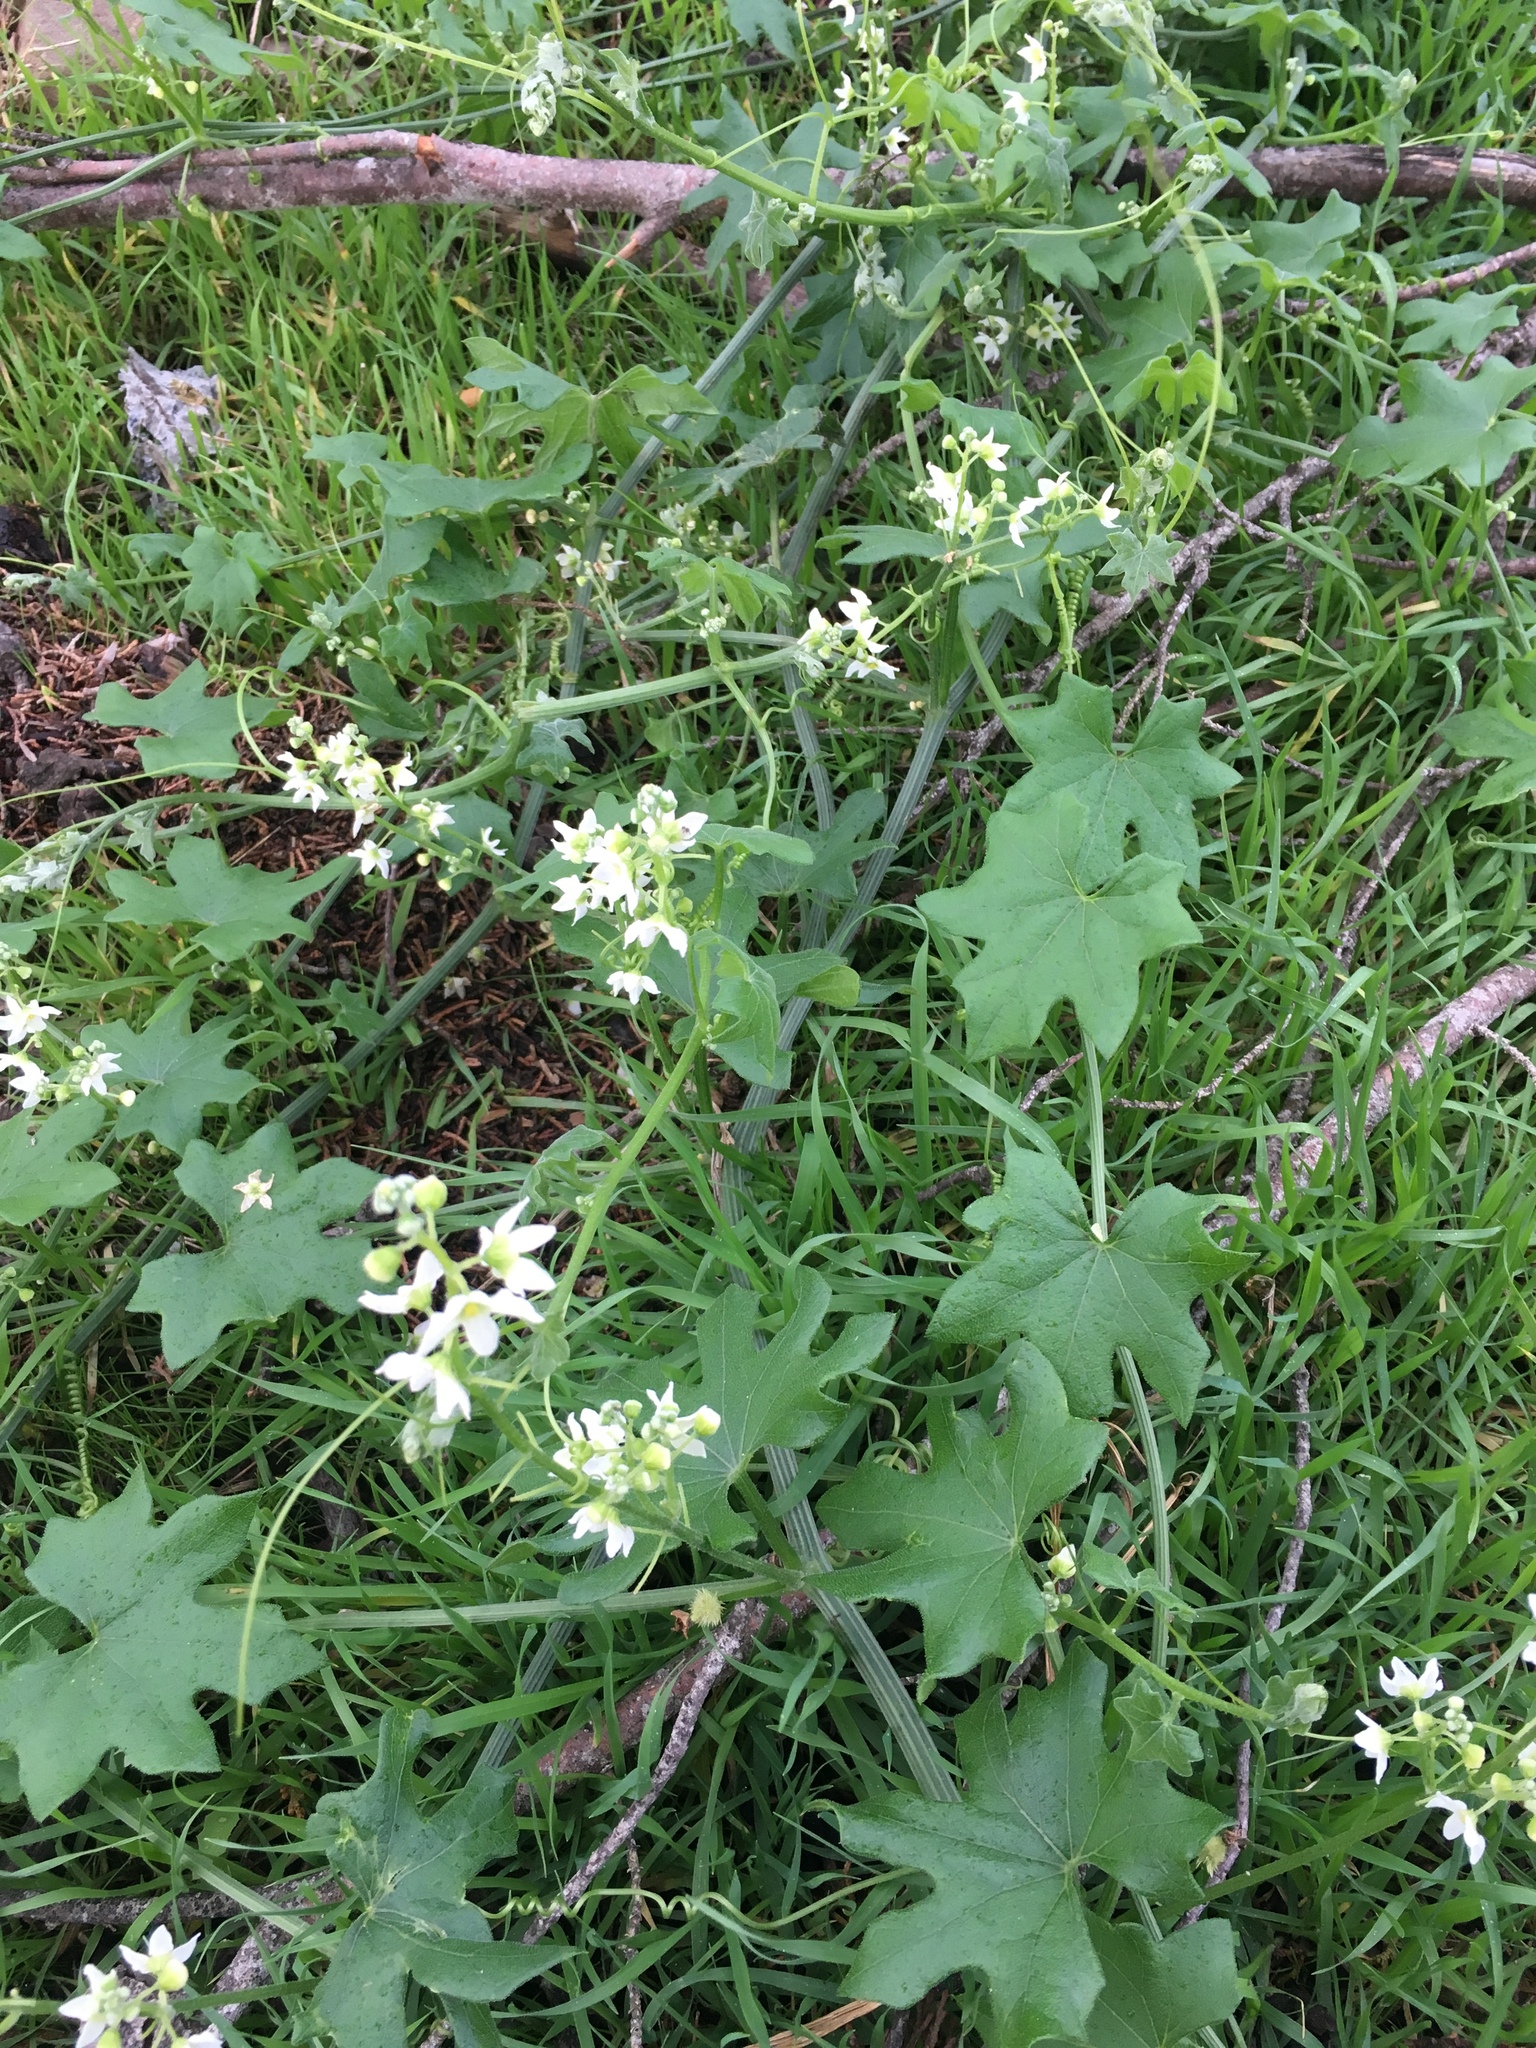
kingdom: Plantae
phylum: Tracheophyta
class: Magnoliopsida
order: Cucurbitales
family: Cucurbitaceae
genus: Marah
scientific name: Marah macrocarpa
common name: Cucamonga manroot
